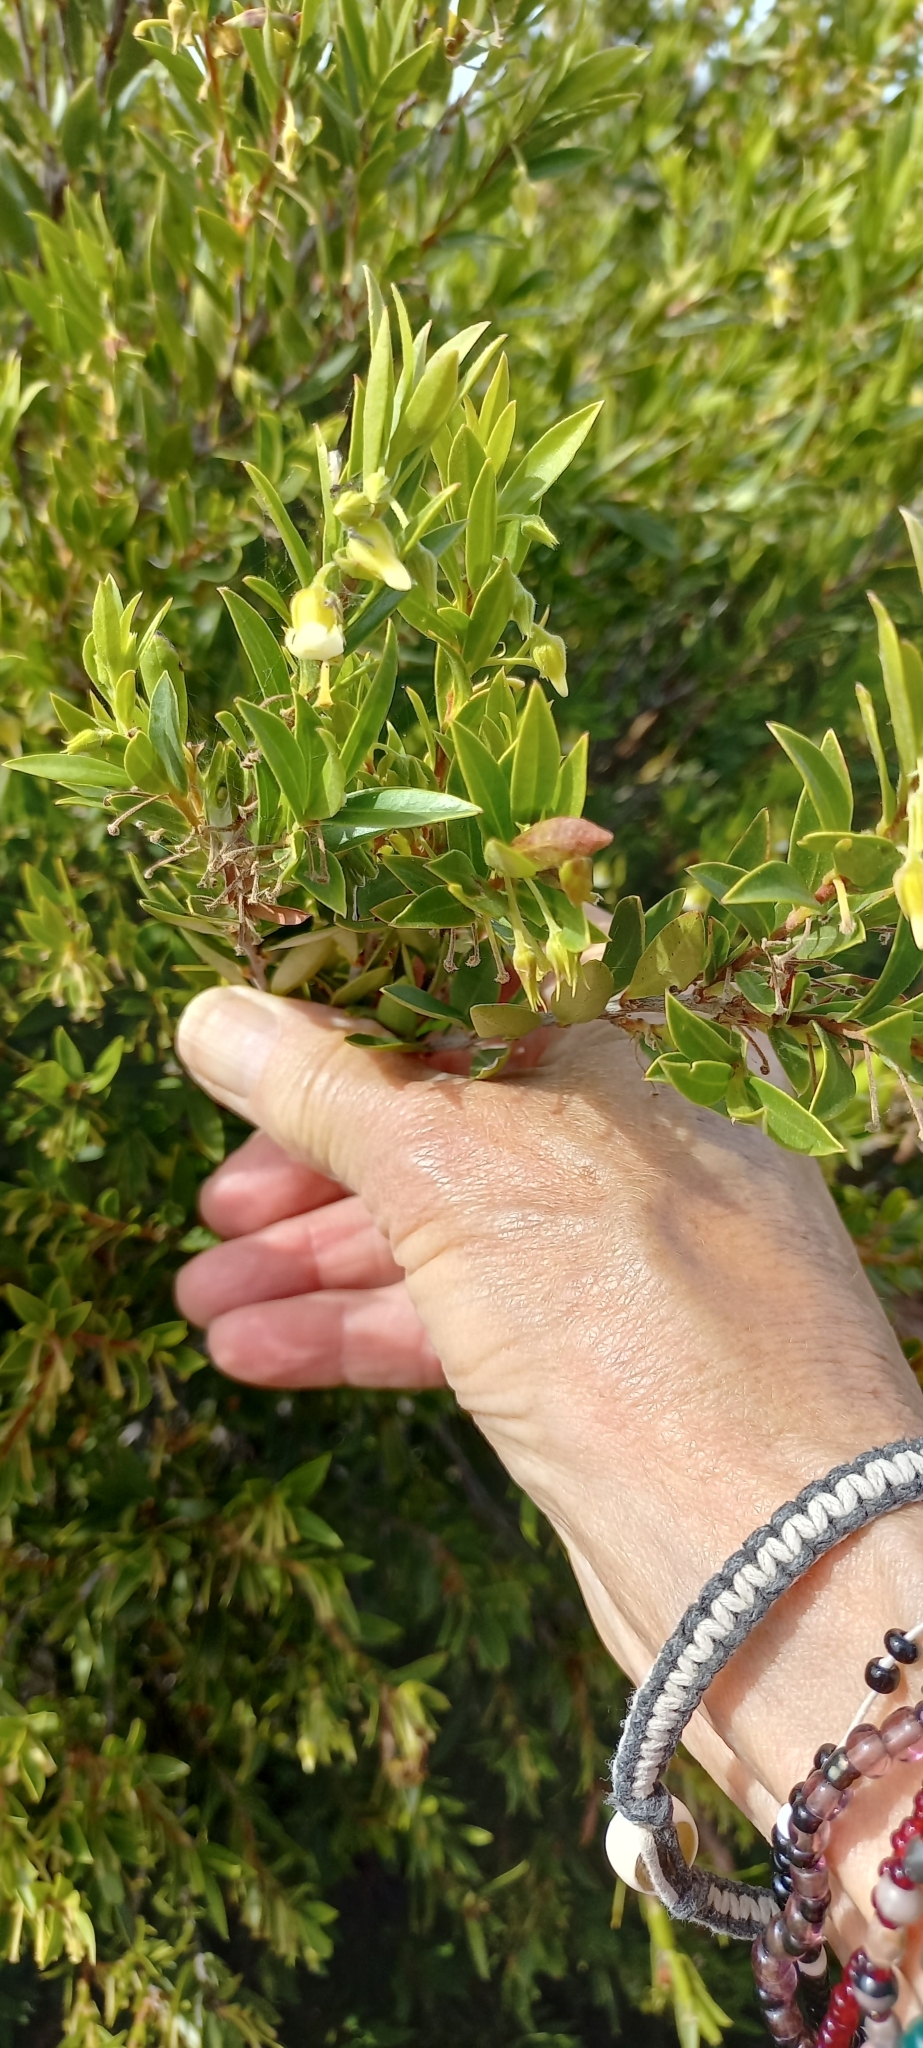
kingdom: Plantae
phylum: Tracheophyta
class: Magnoliopsida
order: Ericales
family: Ebenaceae
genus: Diospyros
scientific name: Diospyros glabra
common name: Fynbos star apple
